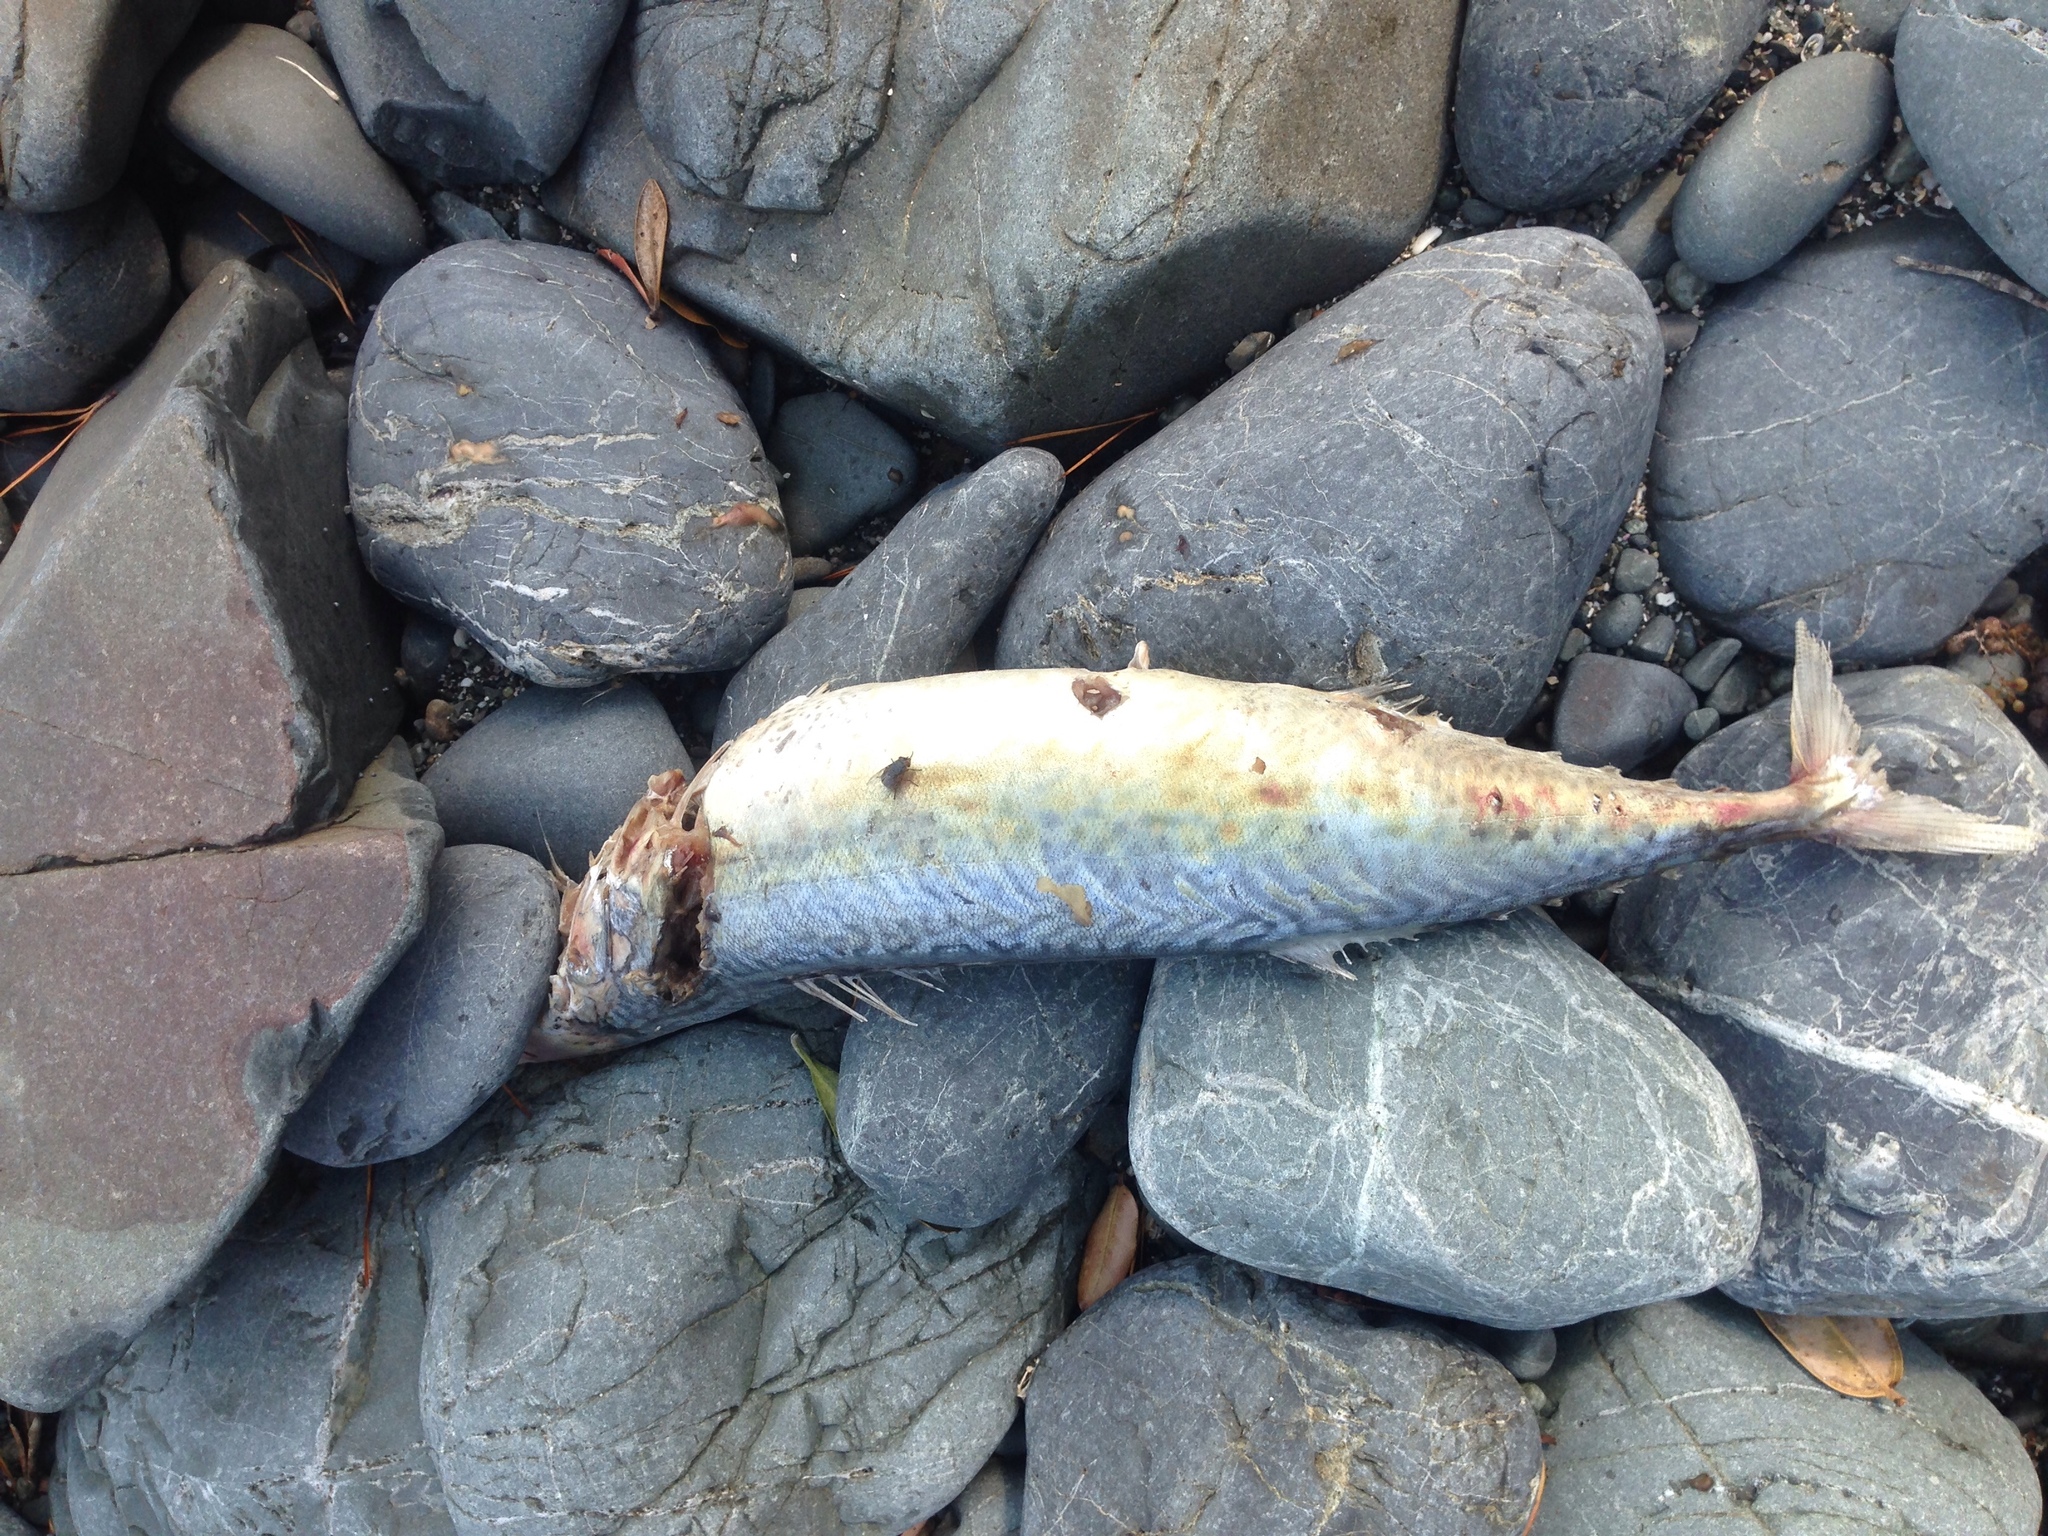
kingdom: Animalia
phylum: Chordata
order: Perciformes
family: Scombridae
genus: Scomber
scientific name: Scomber australasicus
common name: Blue mackerel
